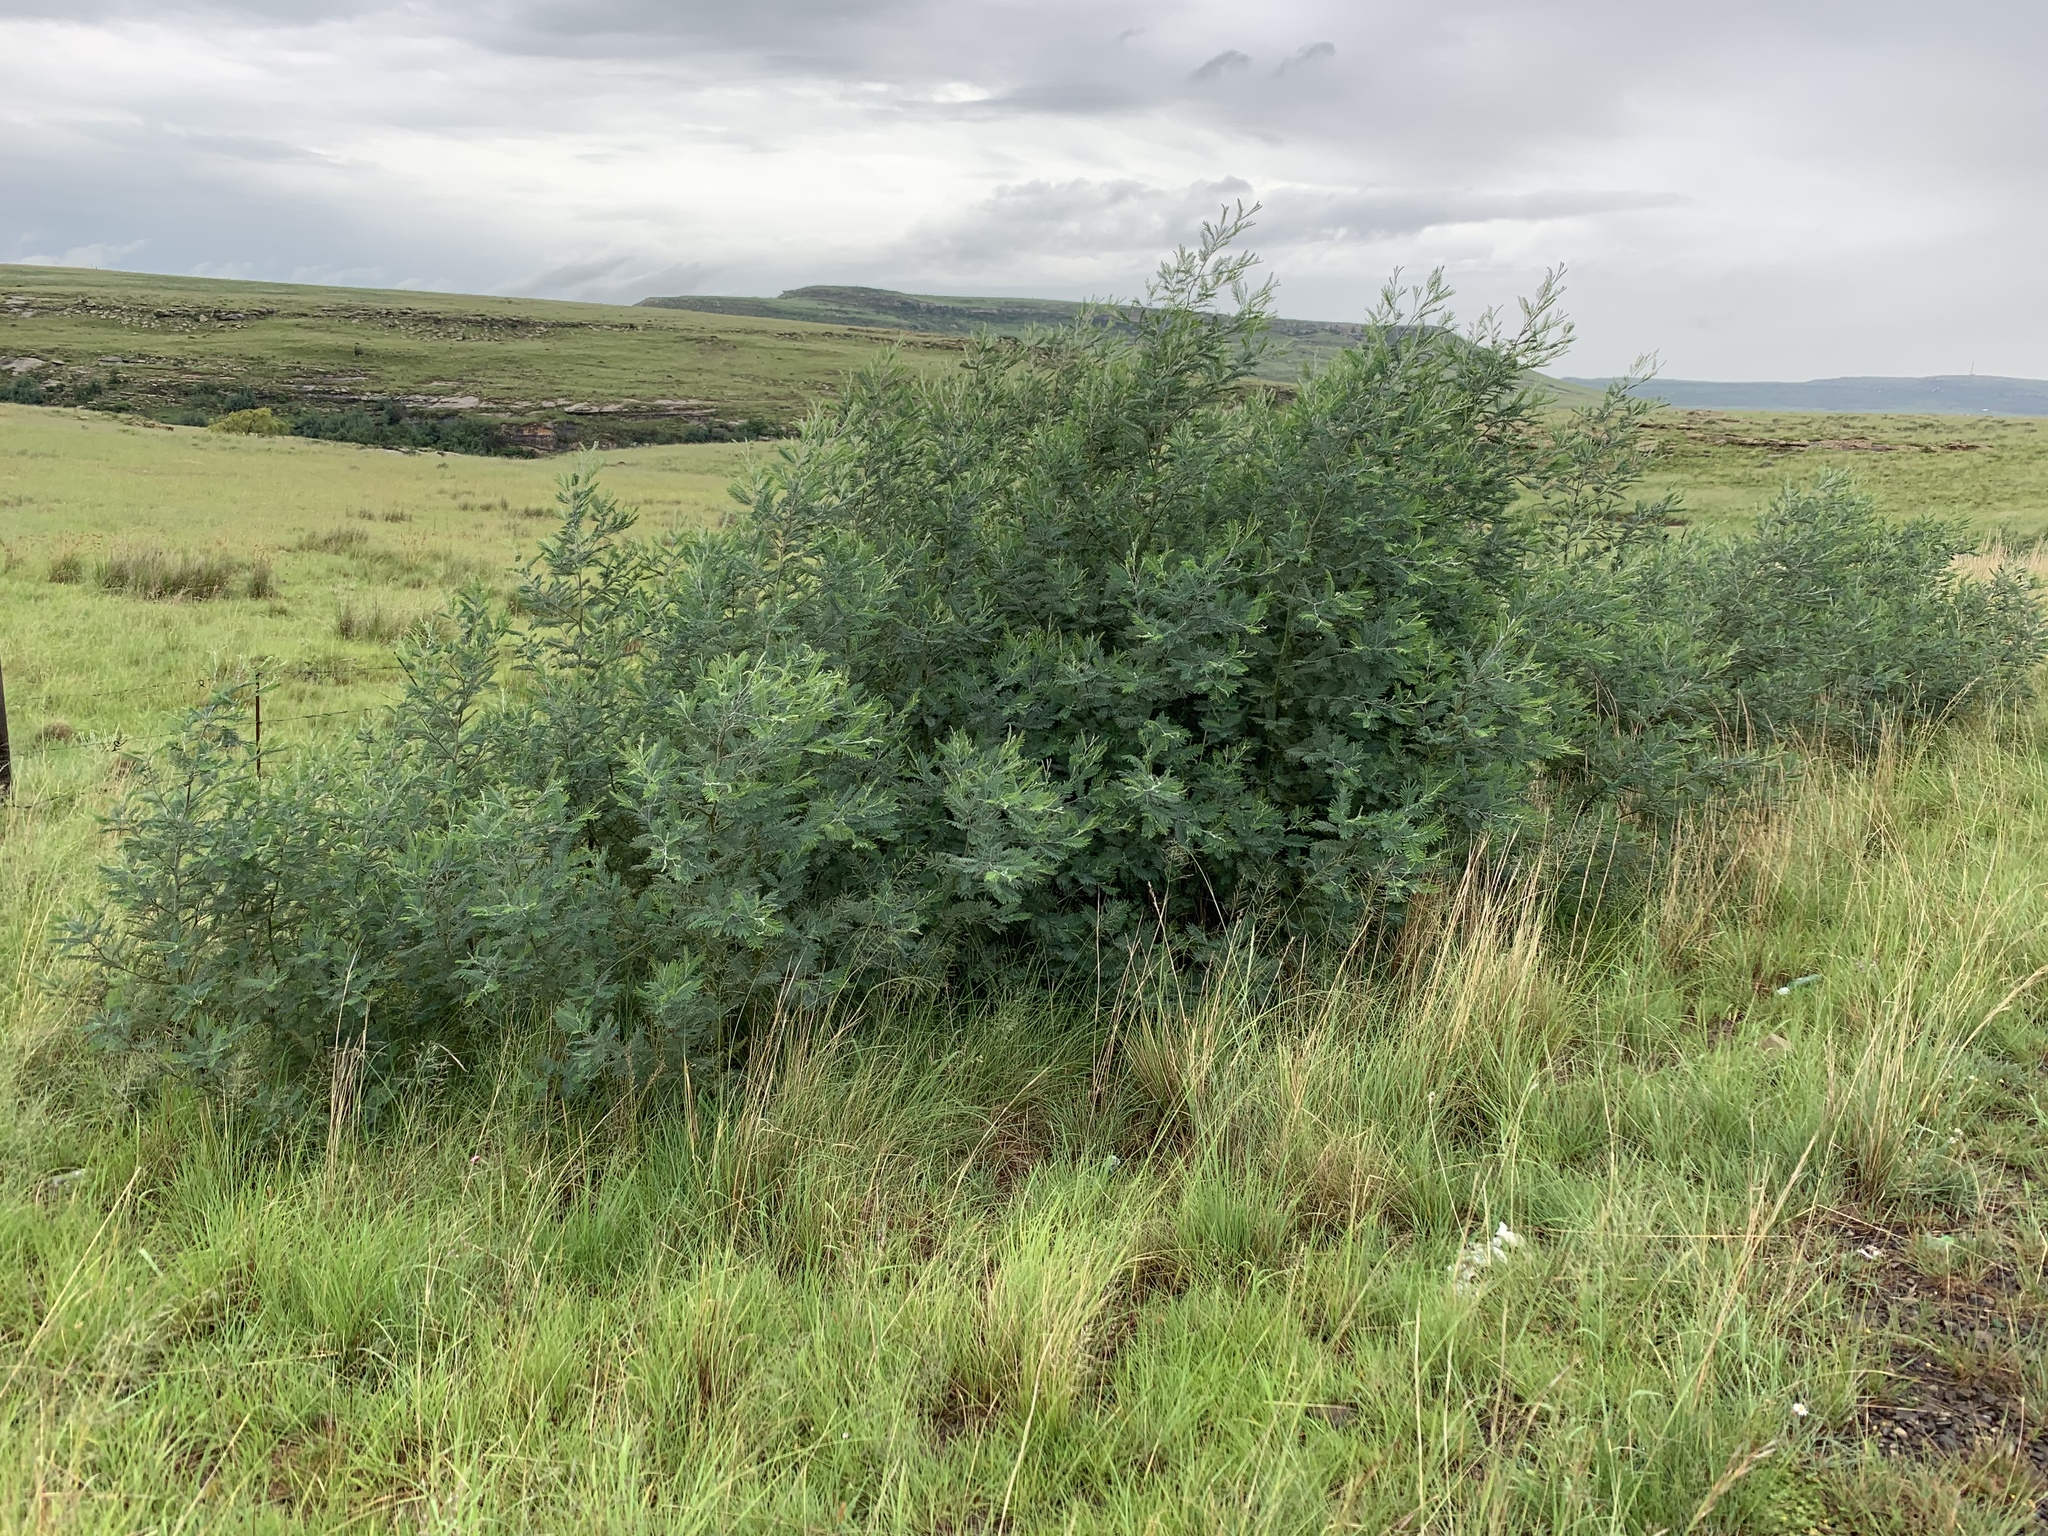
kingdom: Plantae
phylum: Tracheophyta
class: Magnoliopsida
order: Fabales
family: Fabaceae
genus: Acacia
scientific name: Acacia dealbata
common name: Silver wattle
